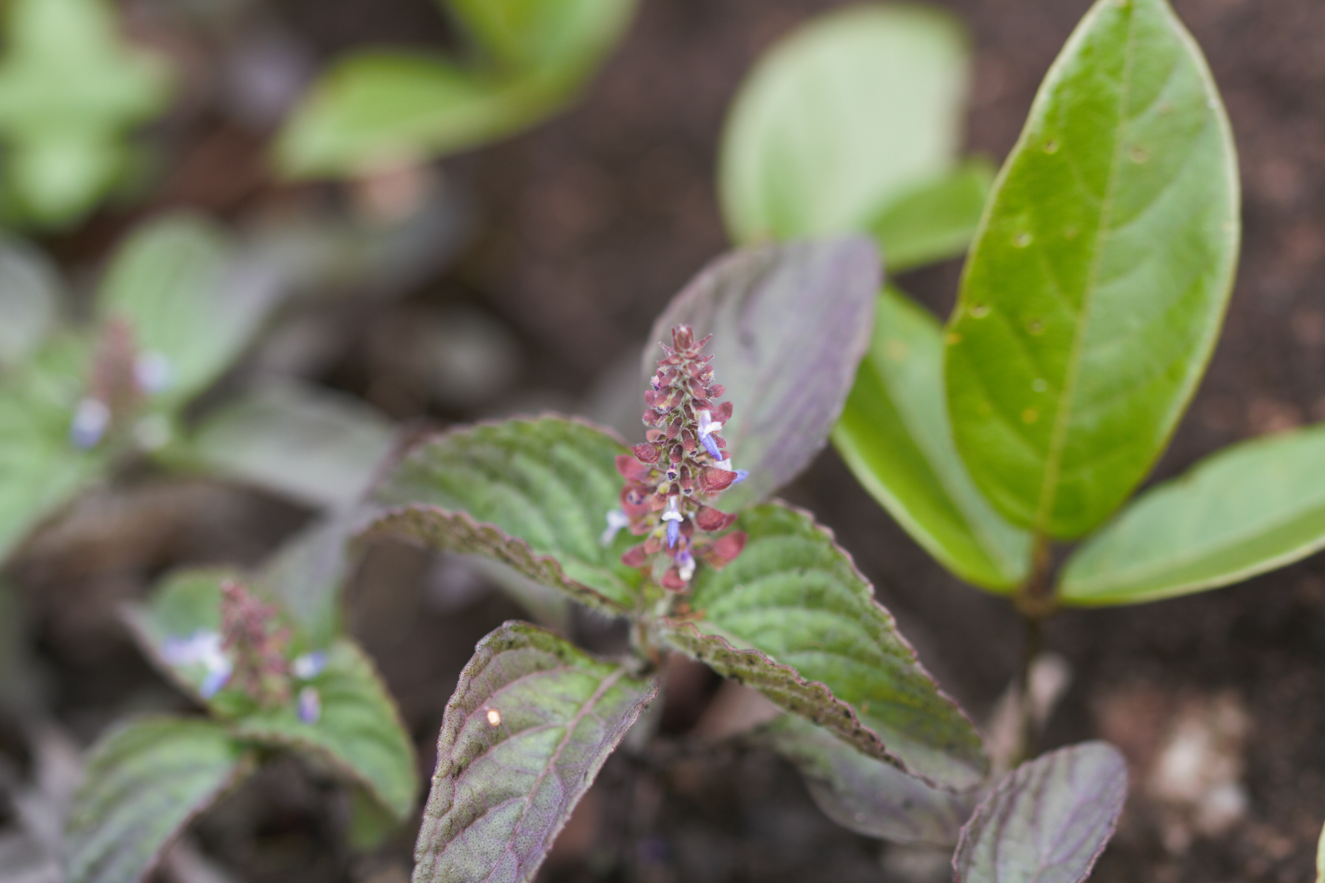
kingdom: Plantae
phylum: Tracheophyta
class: Magnoliopsida
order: Lamiales
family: Lamiaceae
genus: Coleus
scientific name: Coleus monostachyus
